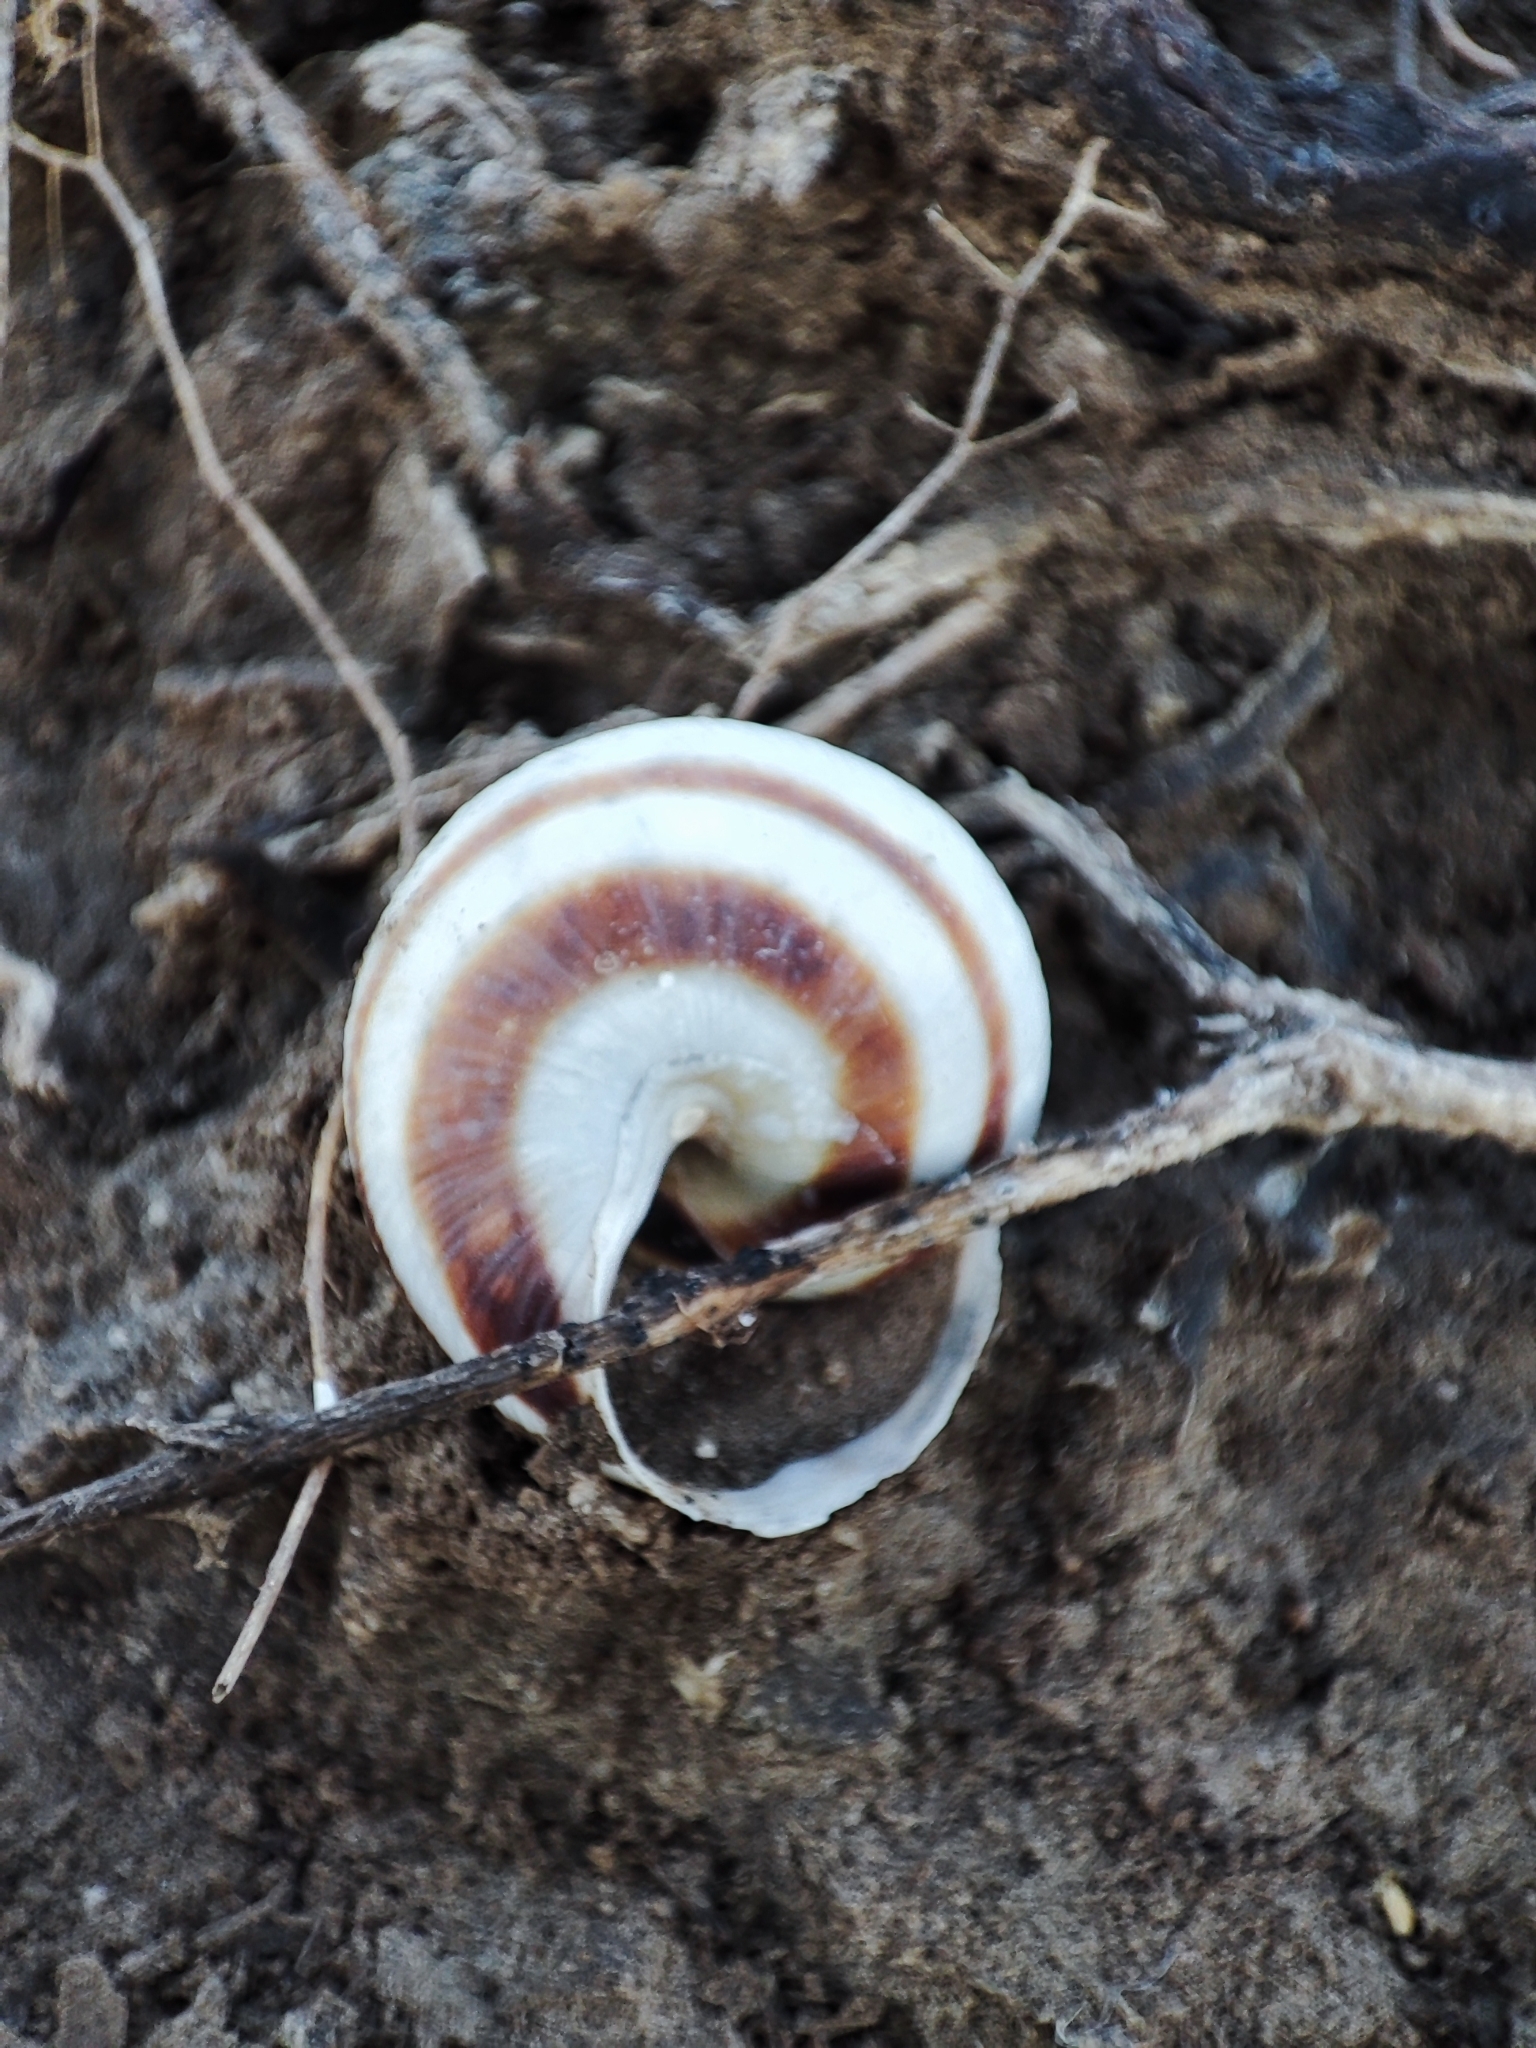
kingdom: Animalia
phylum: Mollusca
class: Gastropoda
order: Stylommatophora
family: Helicidae
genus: Caucasotachea
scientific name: Caucasotachea vindobonensis
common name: European helicid land snail
